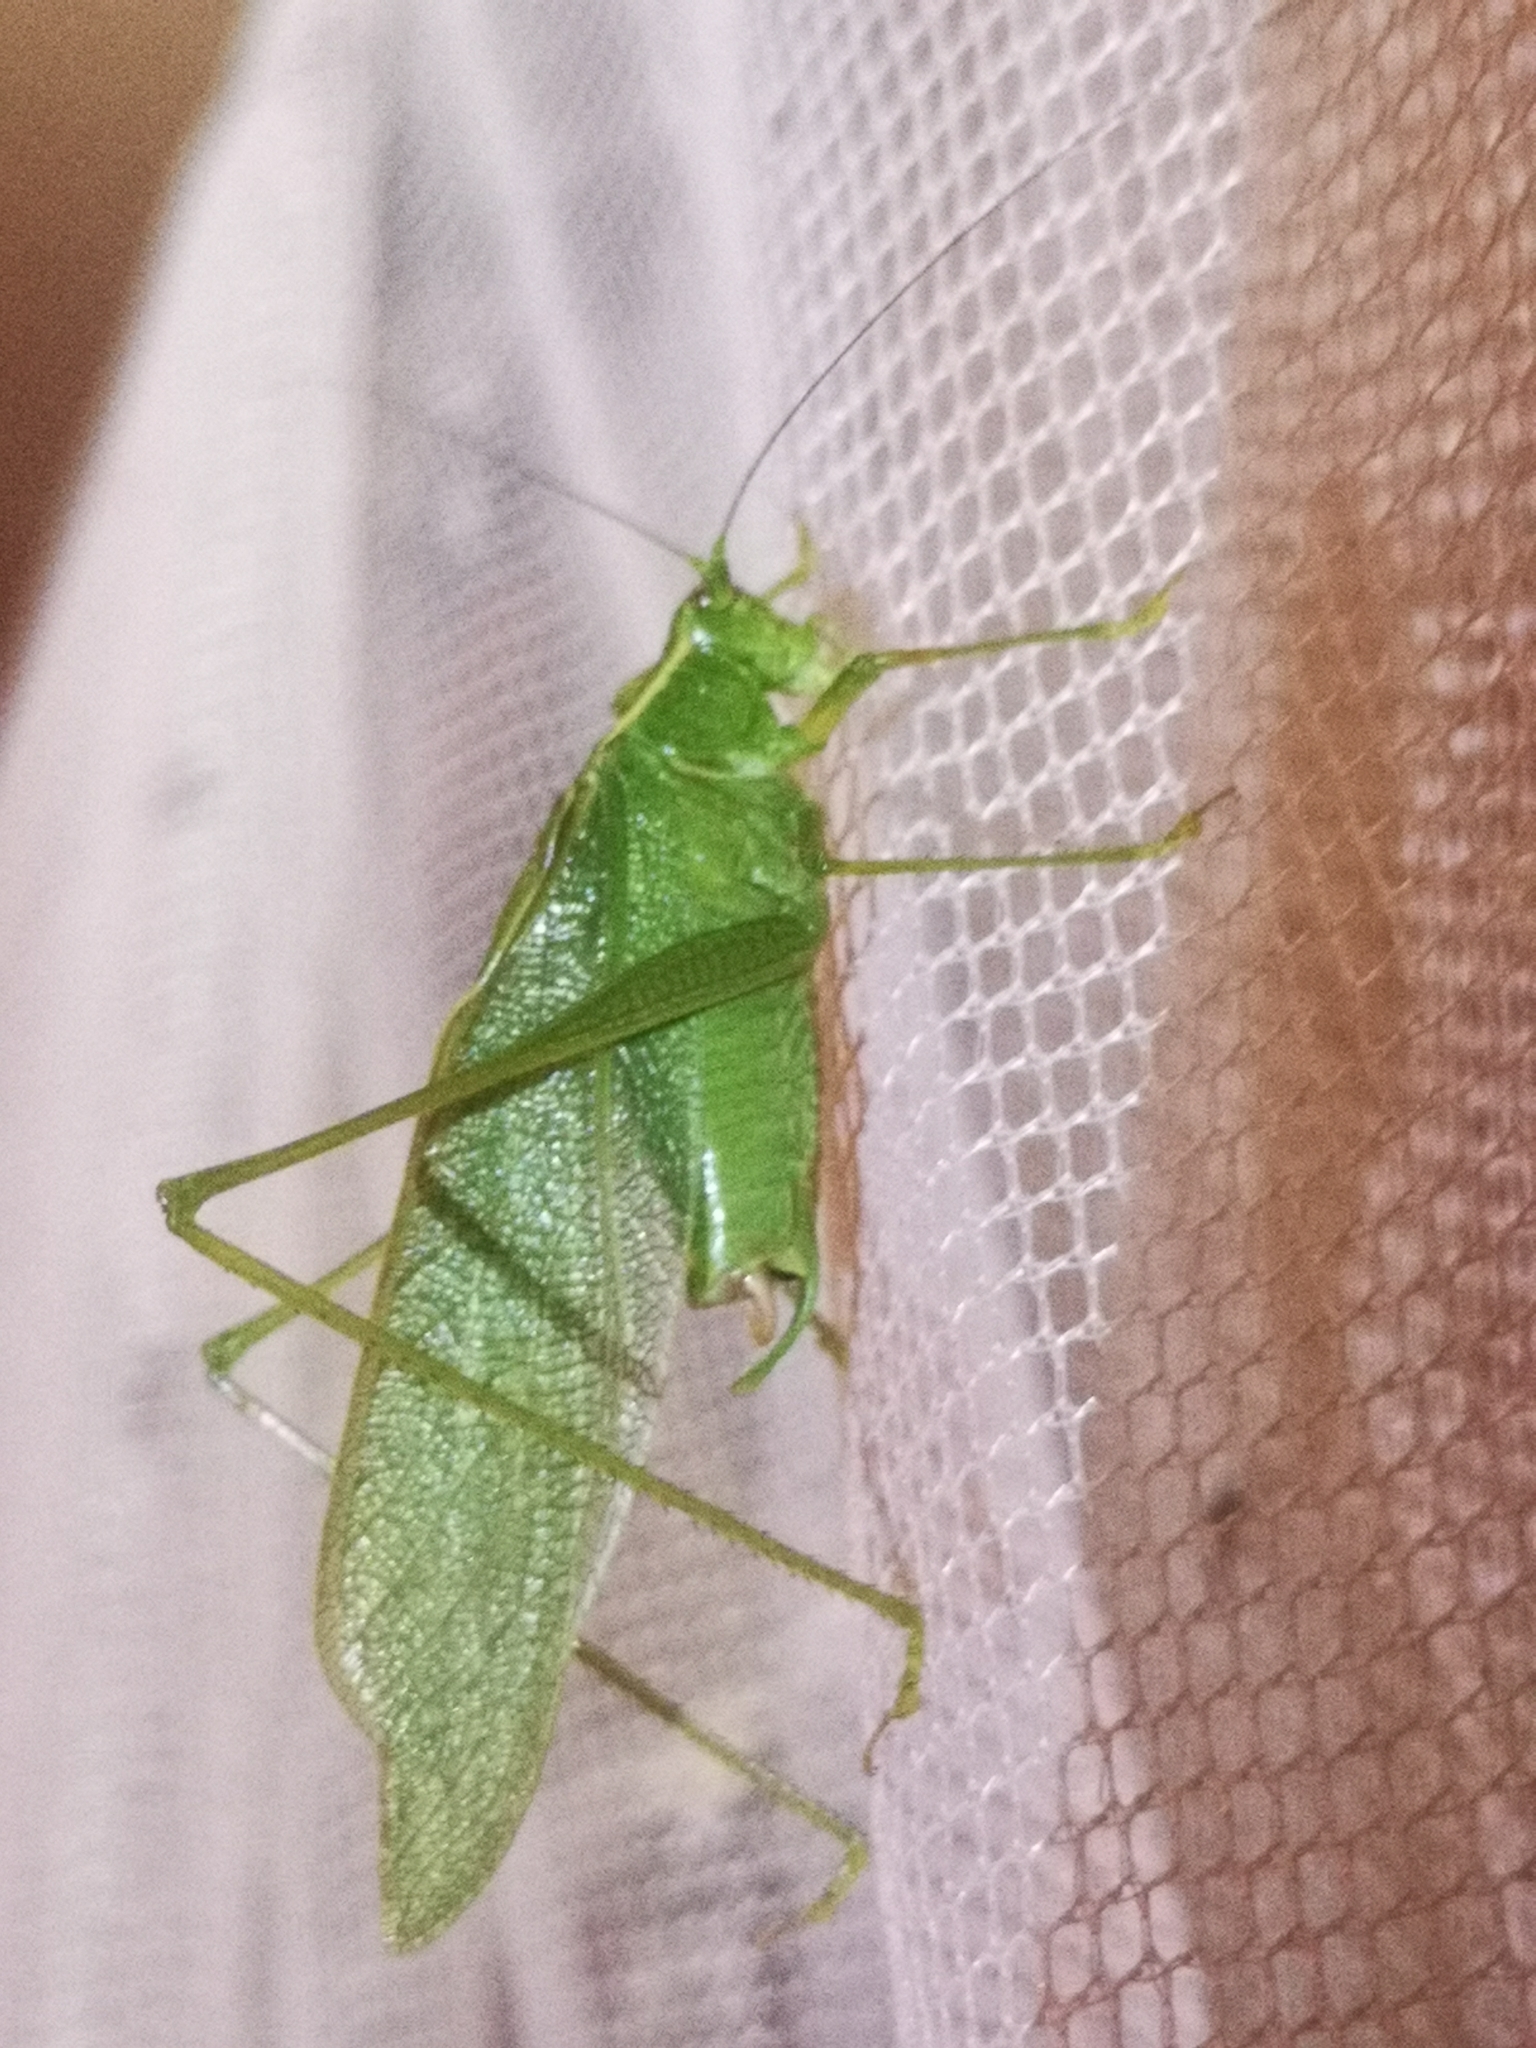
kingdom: Animalia
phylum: Arthropoda
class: Insecta
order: Orthoptera
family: Tettigoniidae
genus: Scudderia
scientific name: Scudderia septentrionalis
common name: Northern bush-katydid
